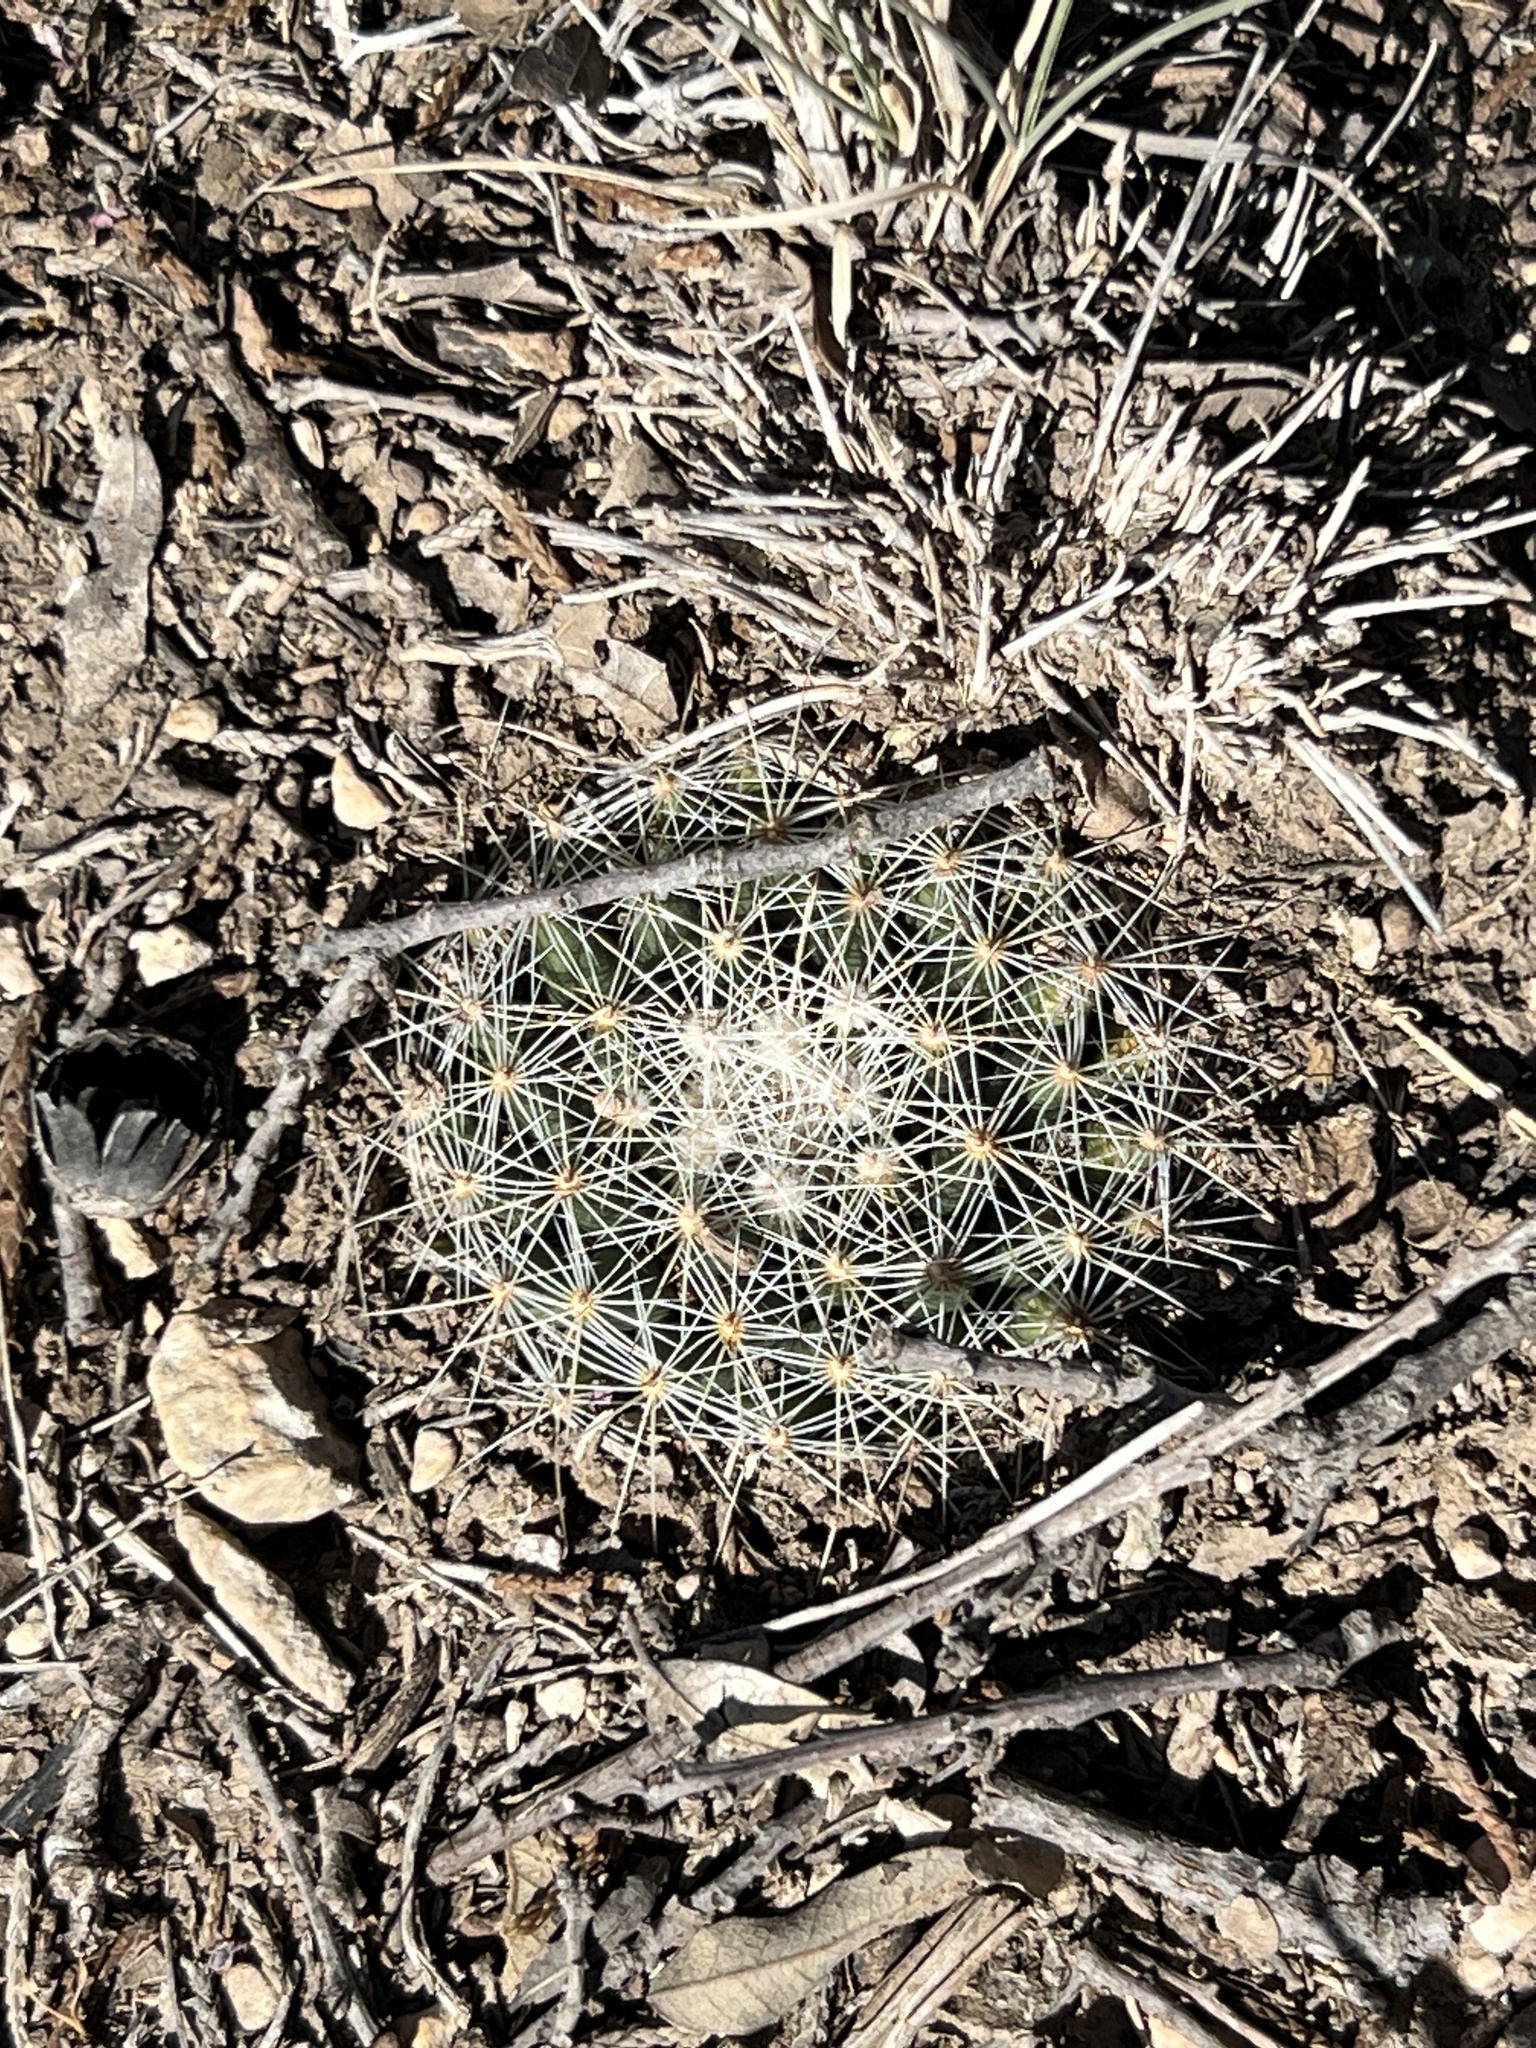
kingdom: Plantae
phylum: Tracheophyta
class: Magnoliopsida
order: Caryophyllales
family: Cactaceae
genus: Mammillaria
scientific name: Mammillaria heyderi
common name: Little nipple cactus
